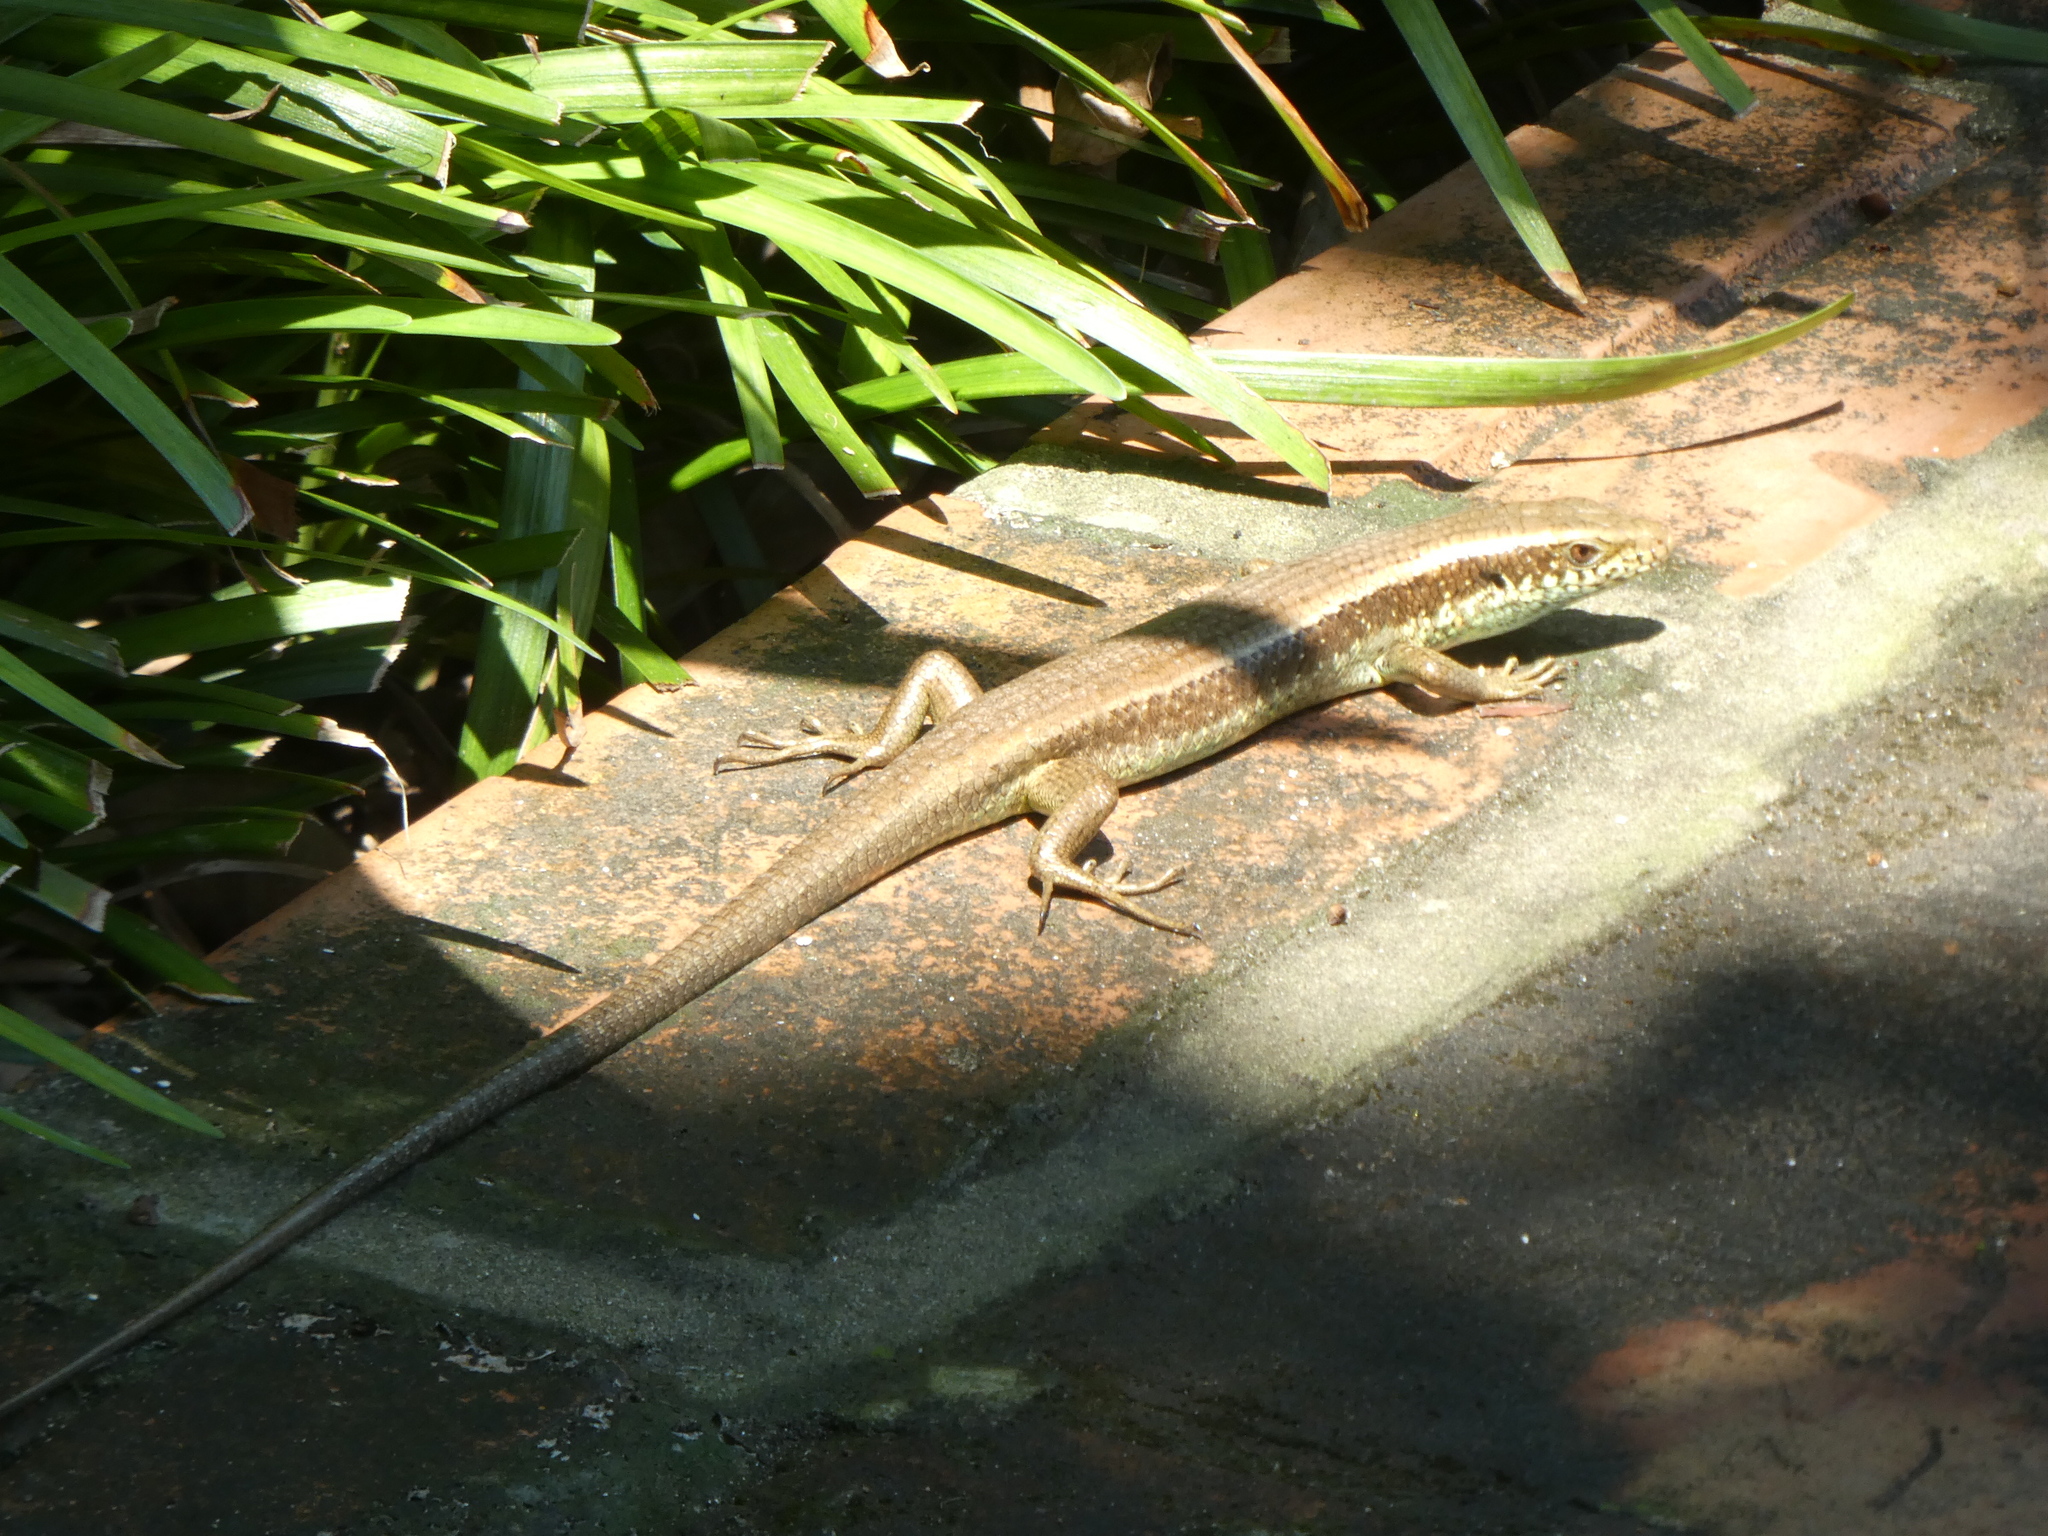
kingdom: Animalia
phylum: Chordata
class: Squamata
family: Scincidae
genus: Eutropis
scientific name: Eutropis longicaudata
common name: Long-tailed sun skink
